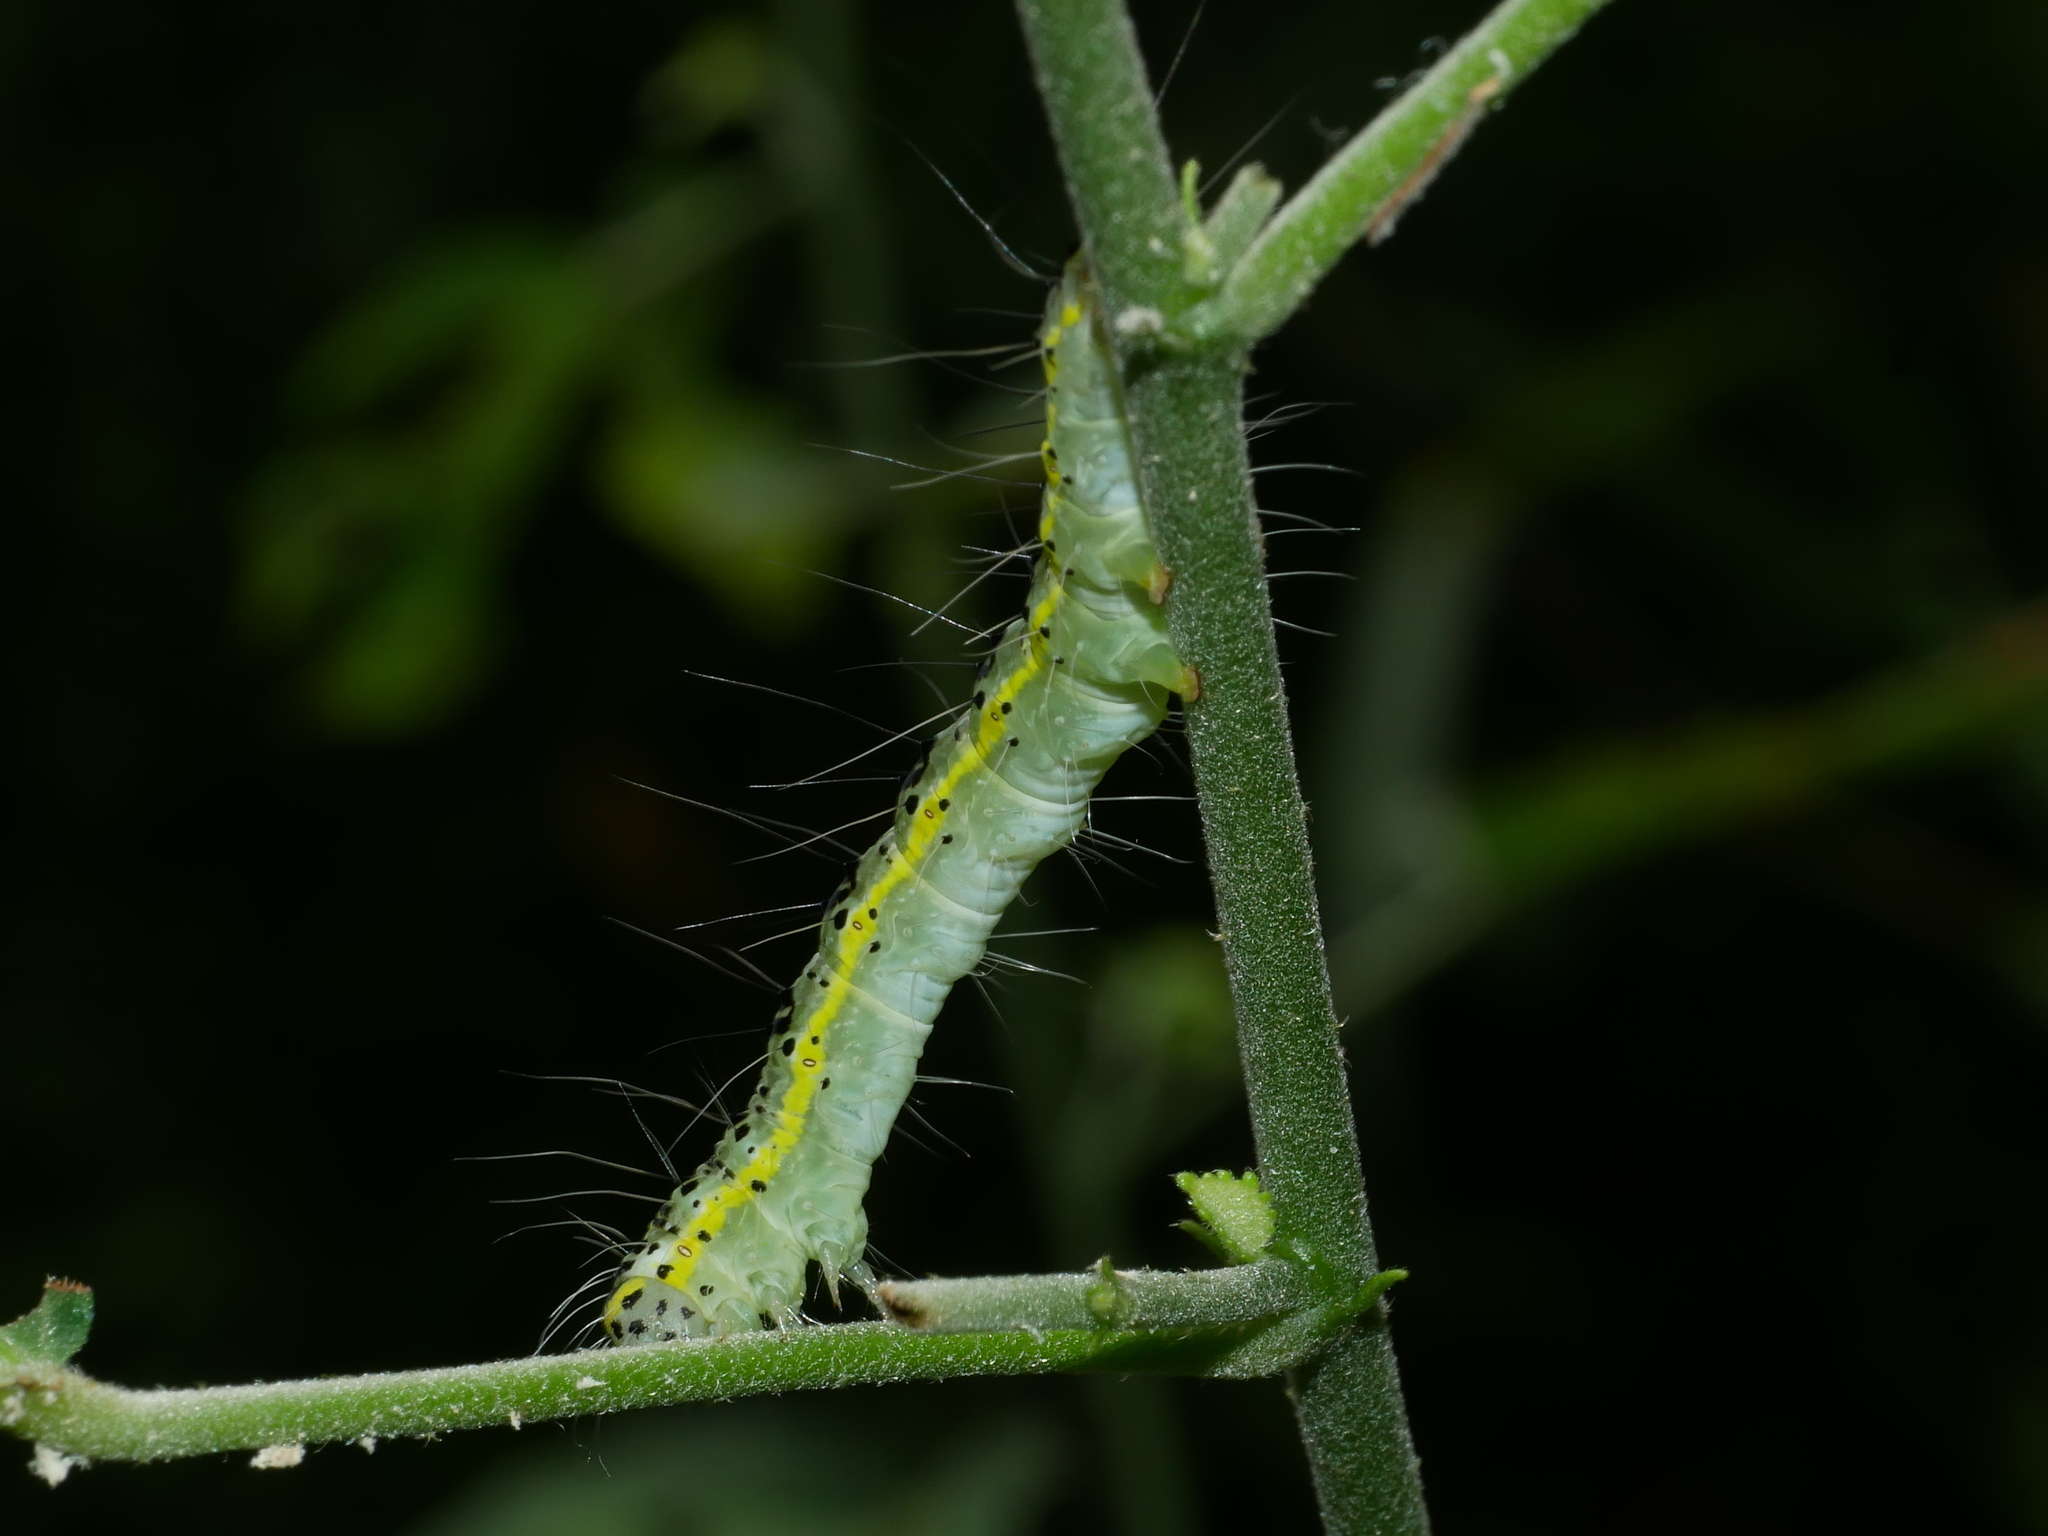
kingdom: Animalia
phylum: Arthropoda
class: Insecta
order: Lepidoptera
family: Nolidae
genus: Xanthodes
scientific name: Xanthodes transversa
